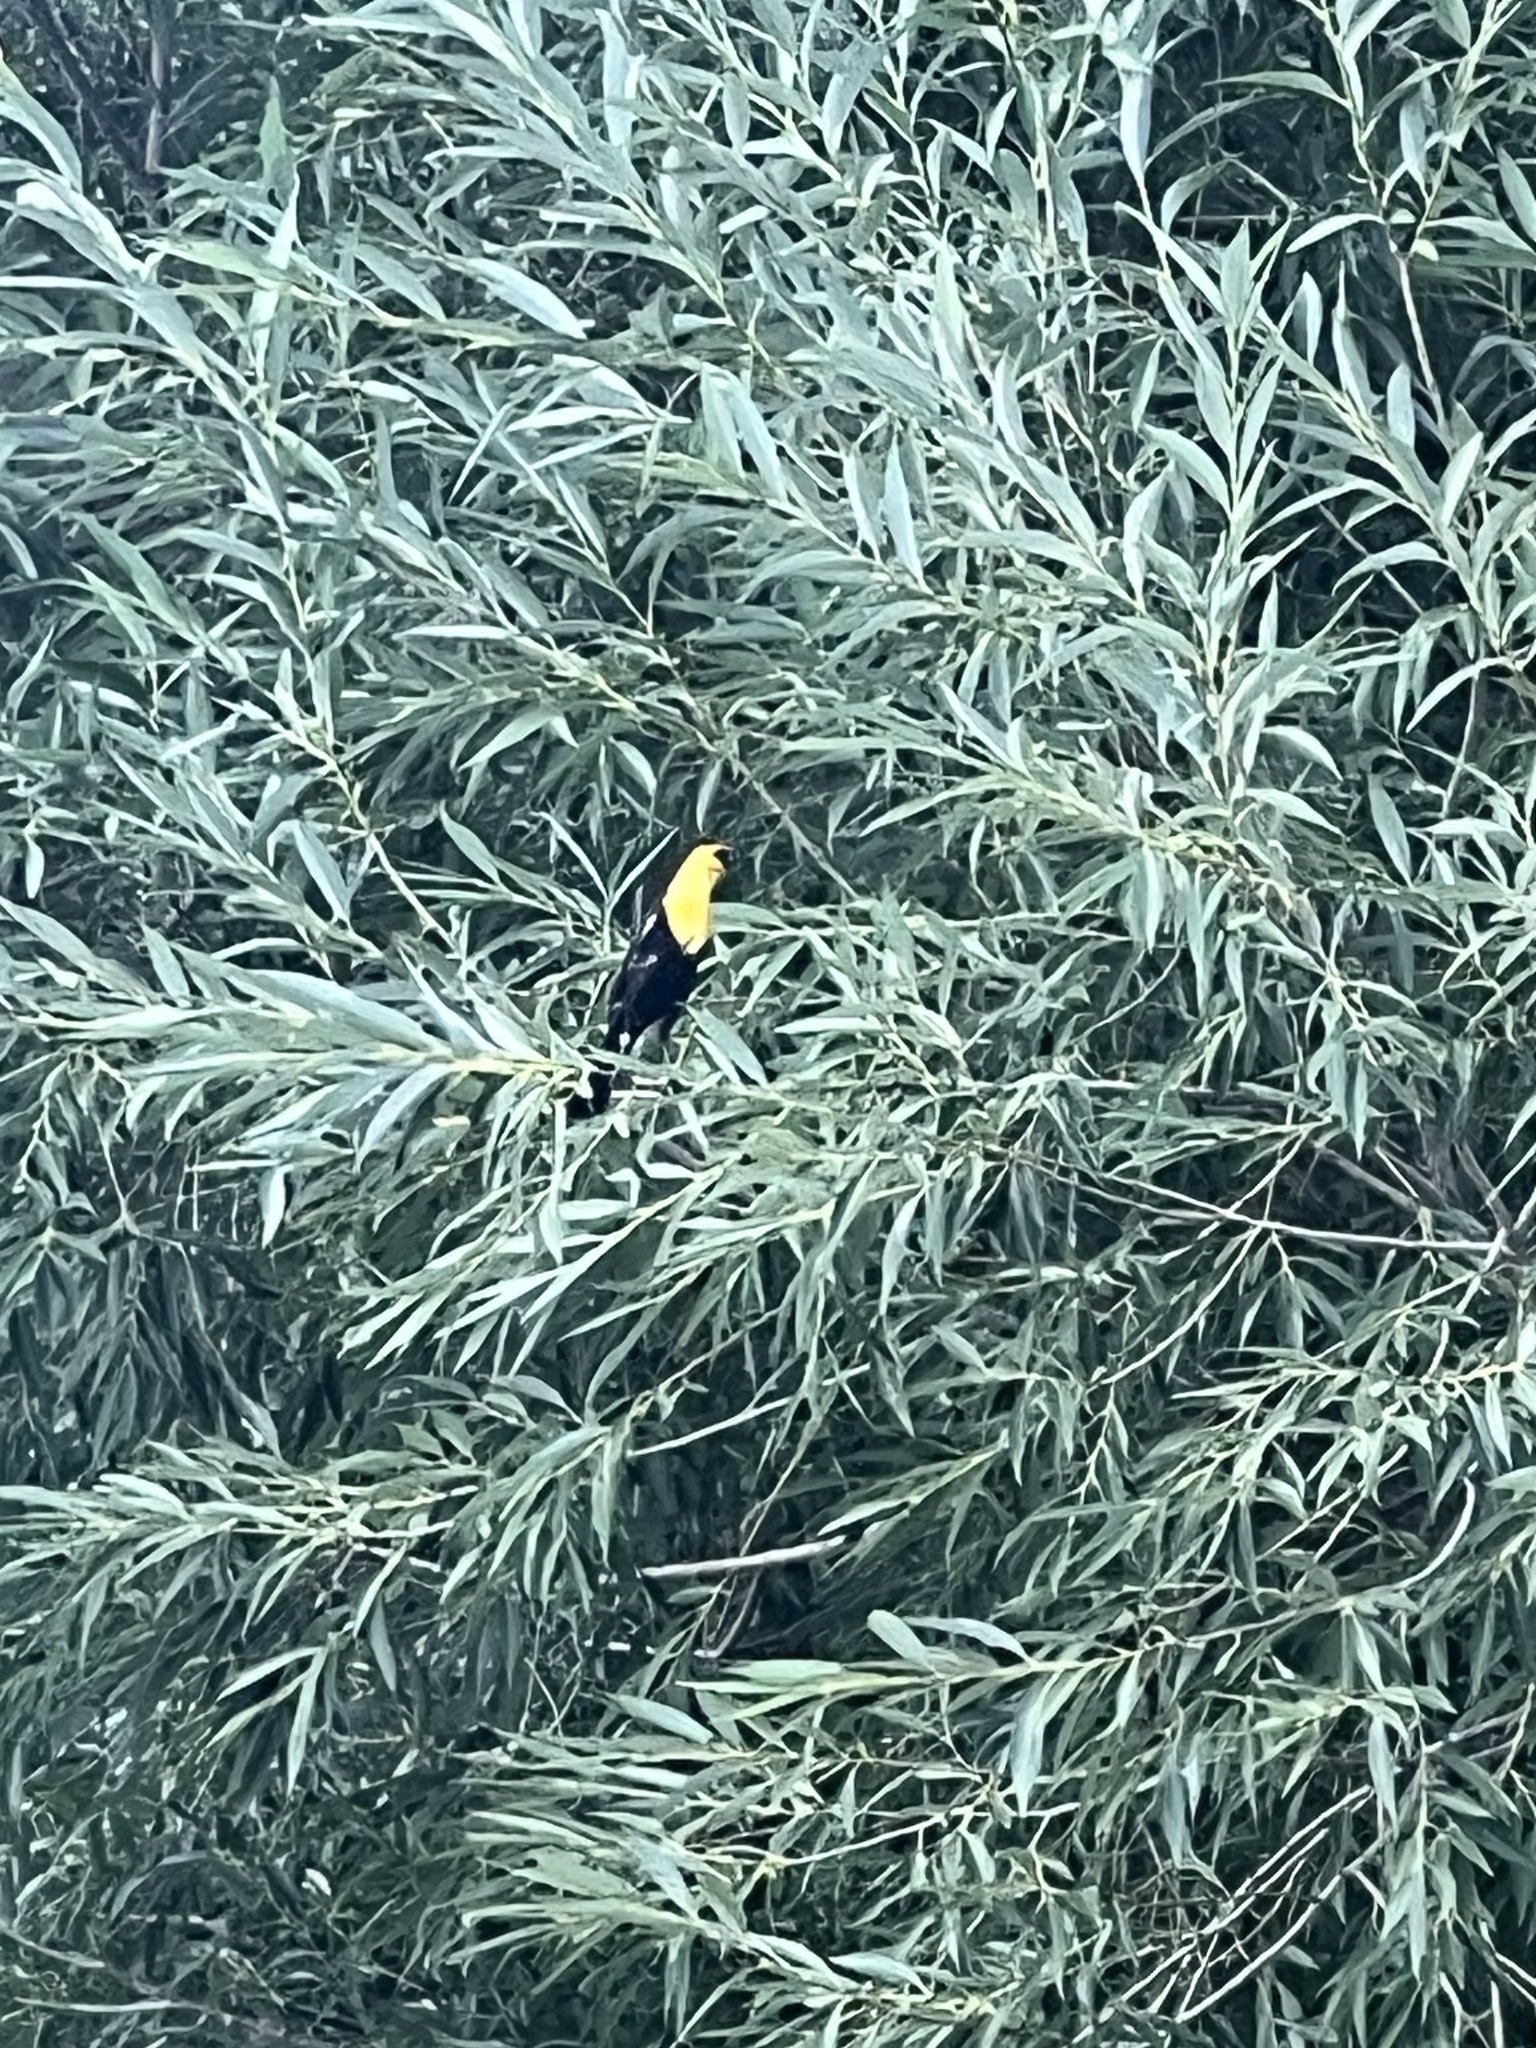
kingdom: Animalia
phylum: Chordata
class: Aves
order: Passeriformes
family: Icteridae
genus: Xanthocephalus
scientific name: Xanthocephalus xanthocephalus
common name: Yellow-headed blackbird
